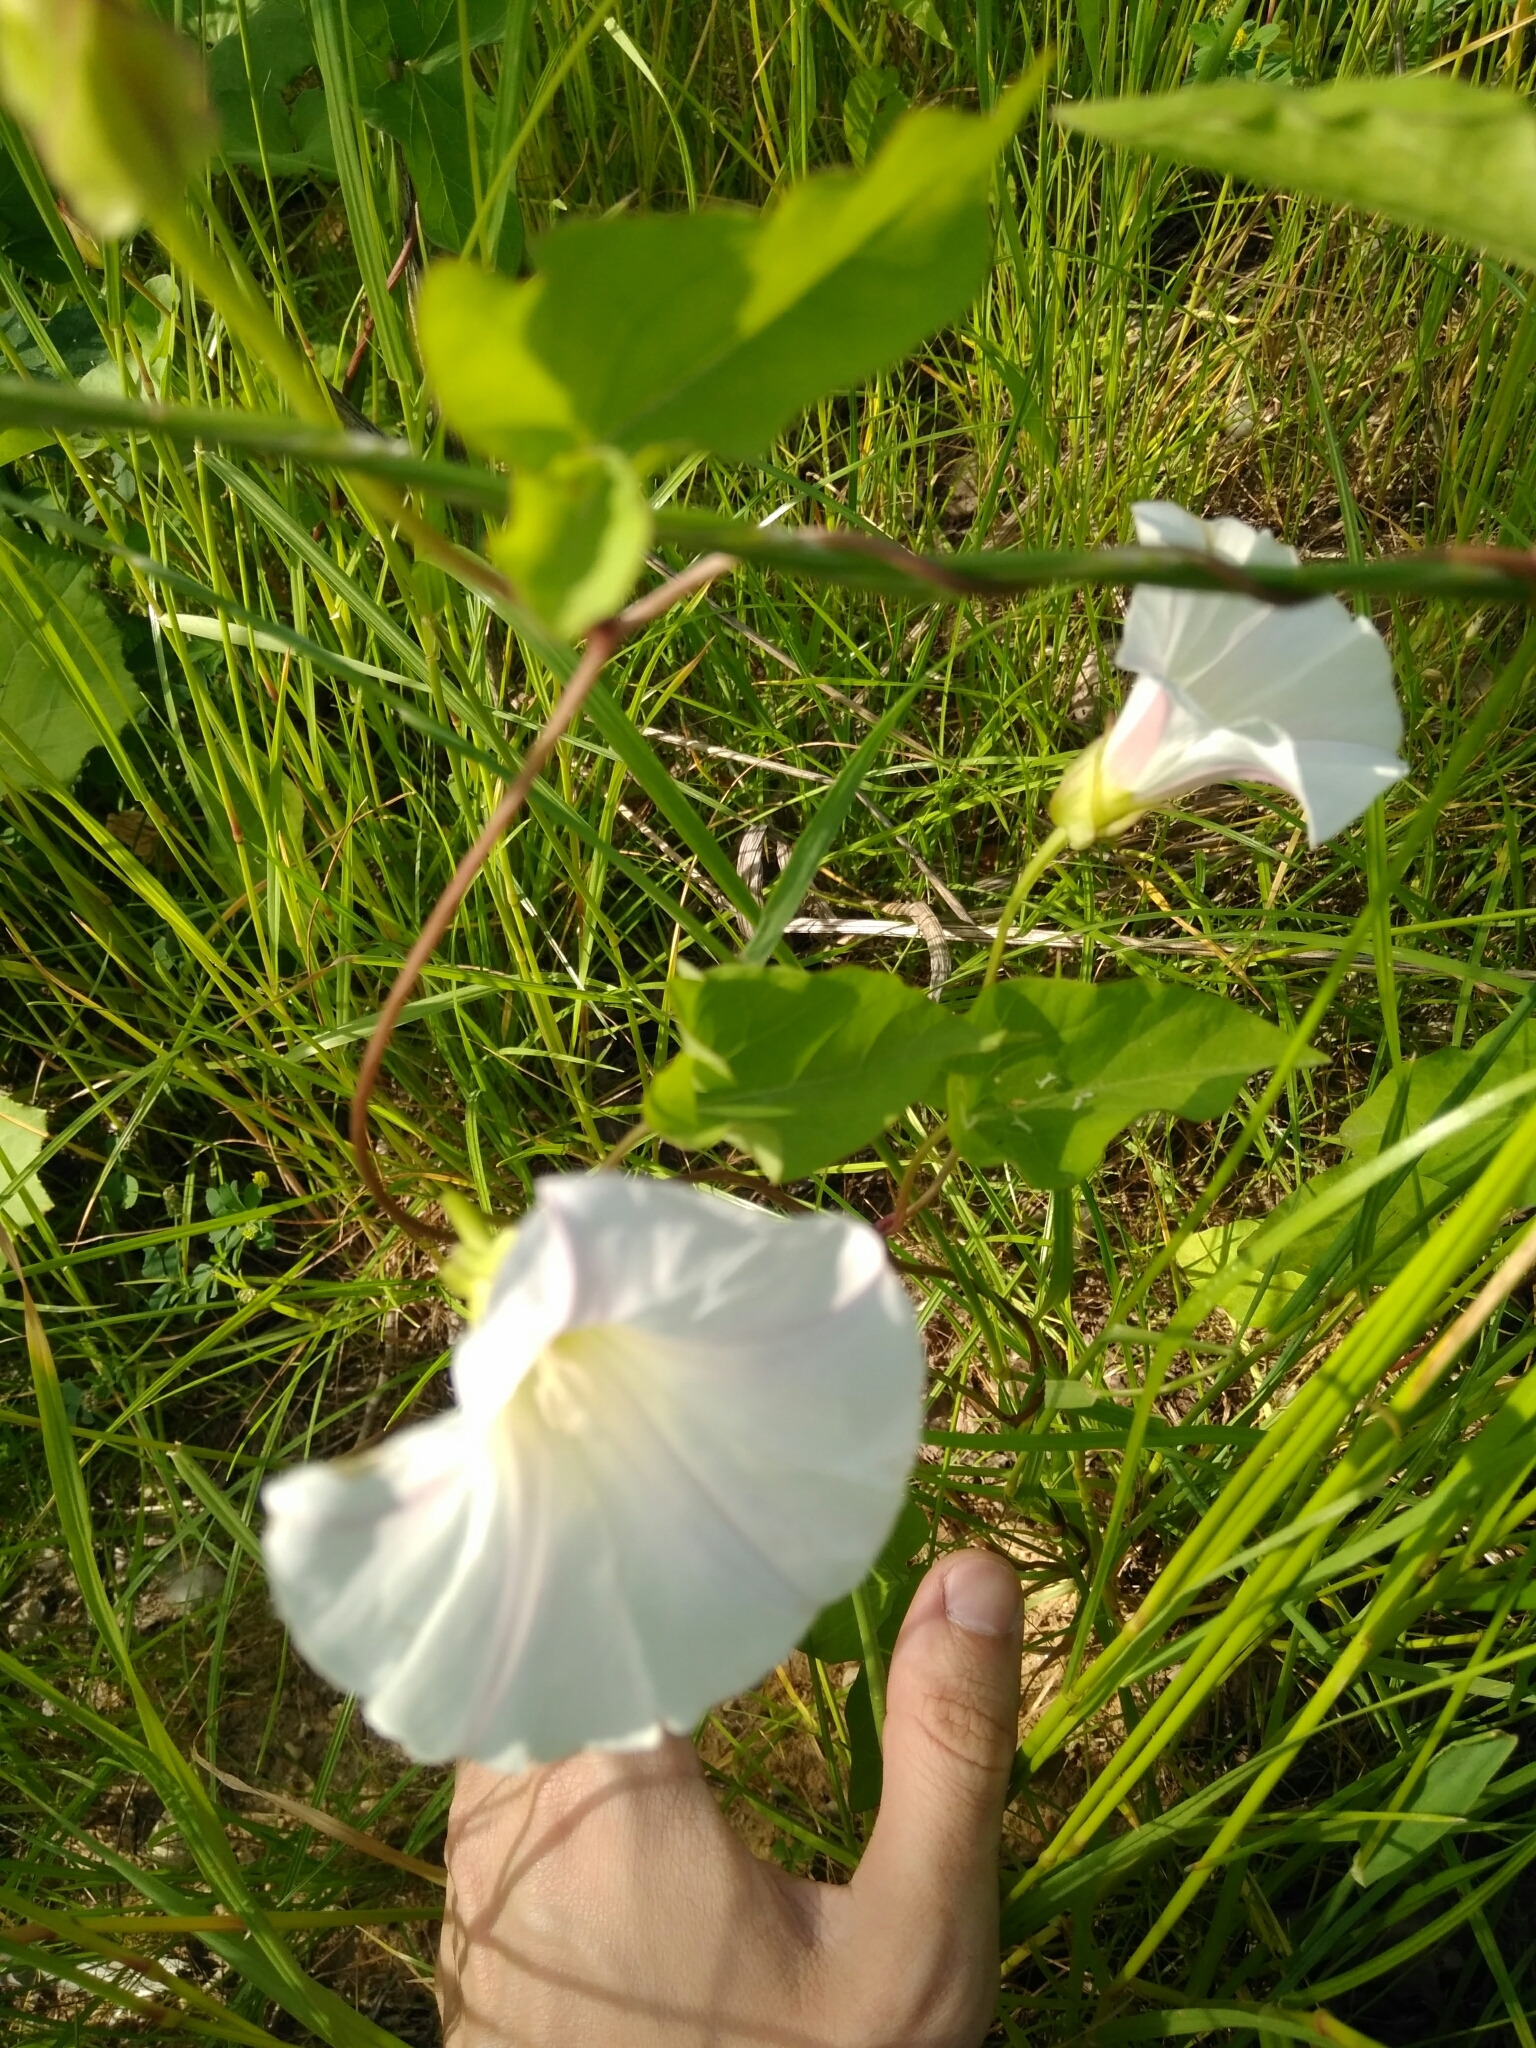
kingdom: Plantae
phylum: Tracheophyta
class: Magnoliopsida
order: Solanales
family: Convolvulaceae
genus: Calystegia
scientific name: Calystegia sepium
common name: Hedge bindweed
